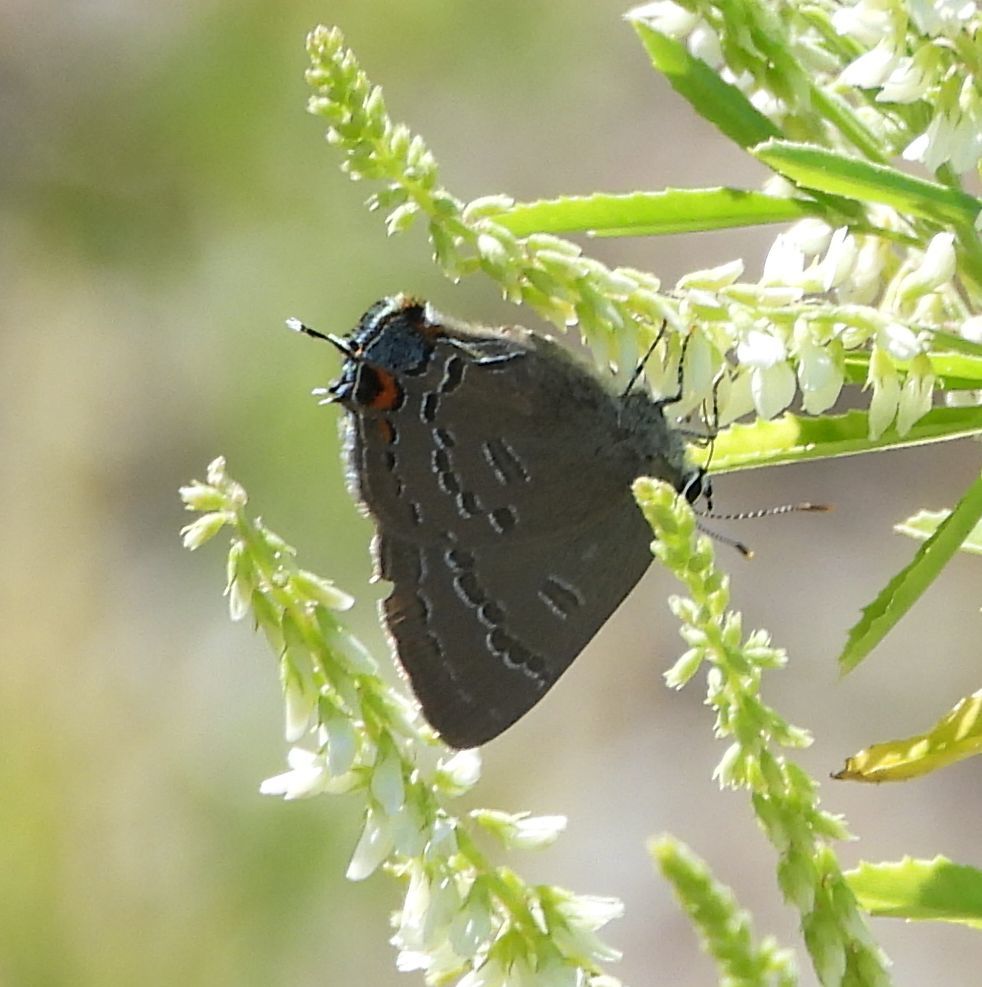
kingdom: Animalia
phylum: Arthropoda
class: Insecta
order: Lepidoptera
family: Lycaenidae
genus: Satyrium
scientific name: Satyrium calanus
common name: Banded hairstreak
